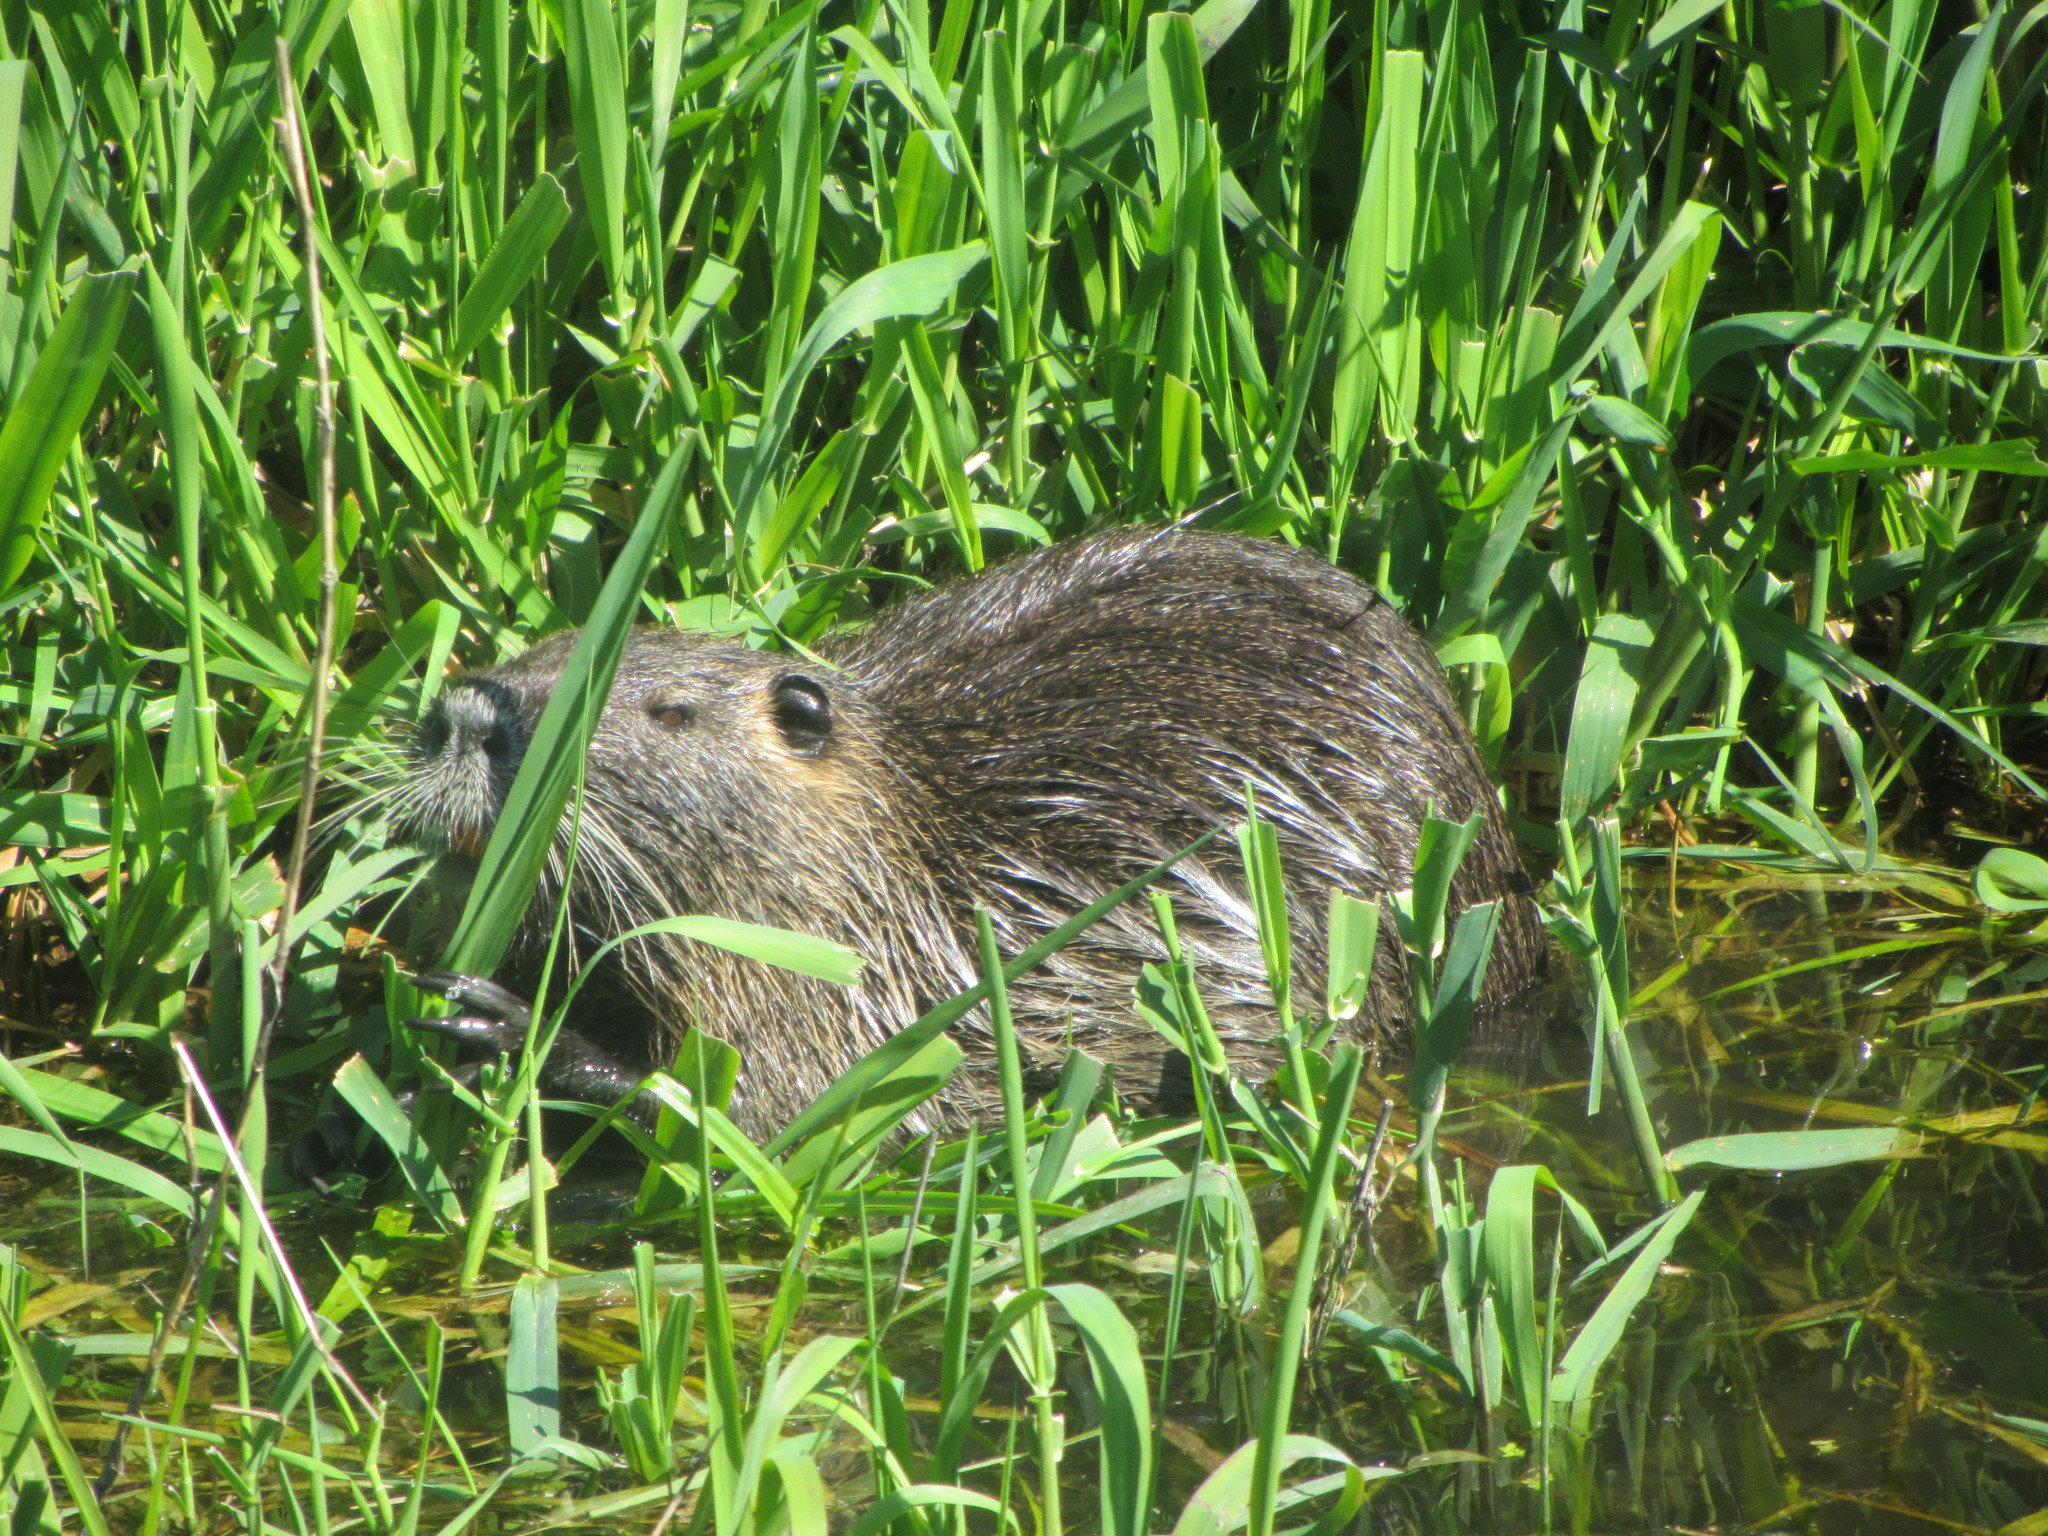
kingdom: Animalia
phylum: Chordata
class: Mammalia
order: Rodentia
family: Myocastoridae
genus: Myocastor
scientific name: Myocastor coypus
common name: Coypu
